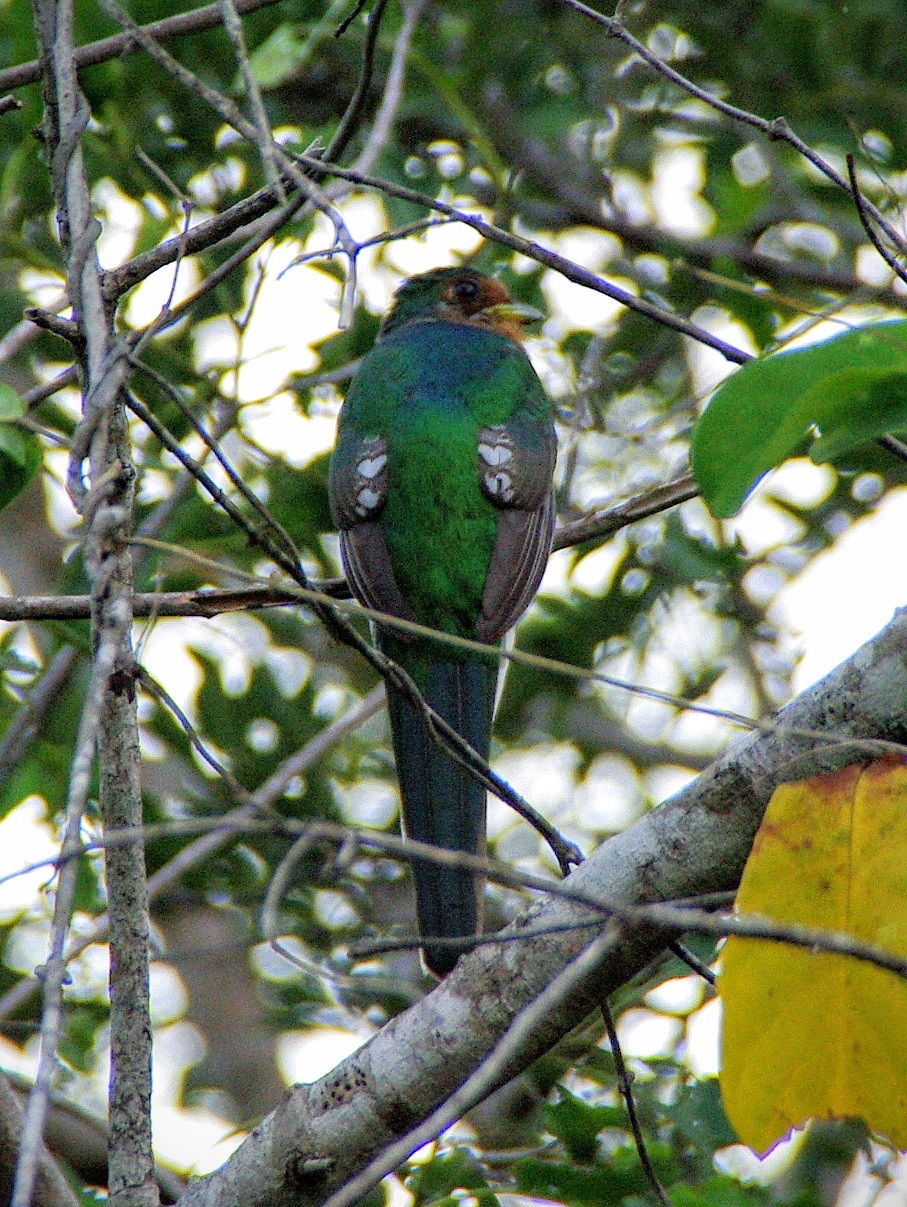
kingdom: Animalia
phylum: Chordata
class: Aves
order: Trogoniformes
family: Trogonidae
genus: Apaloderma
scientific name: Apaloderma narina
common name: Narina trogon
